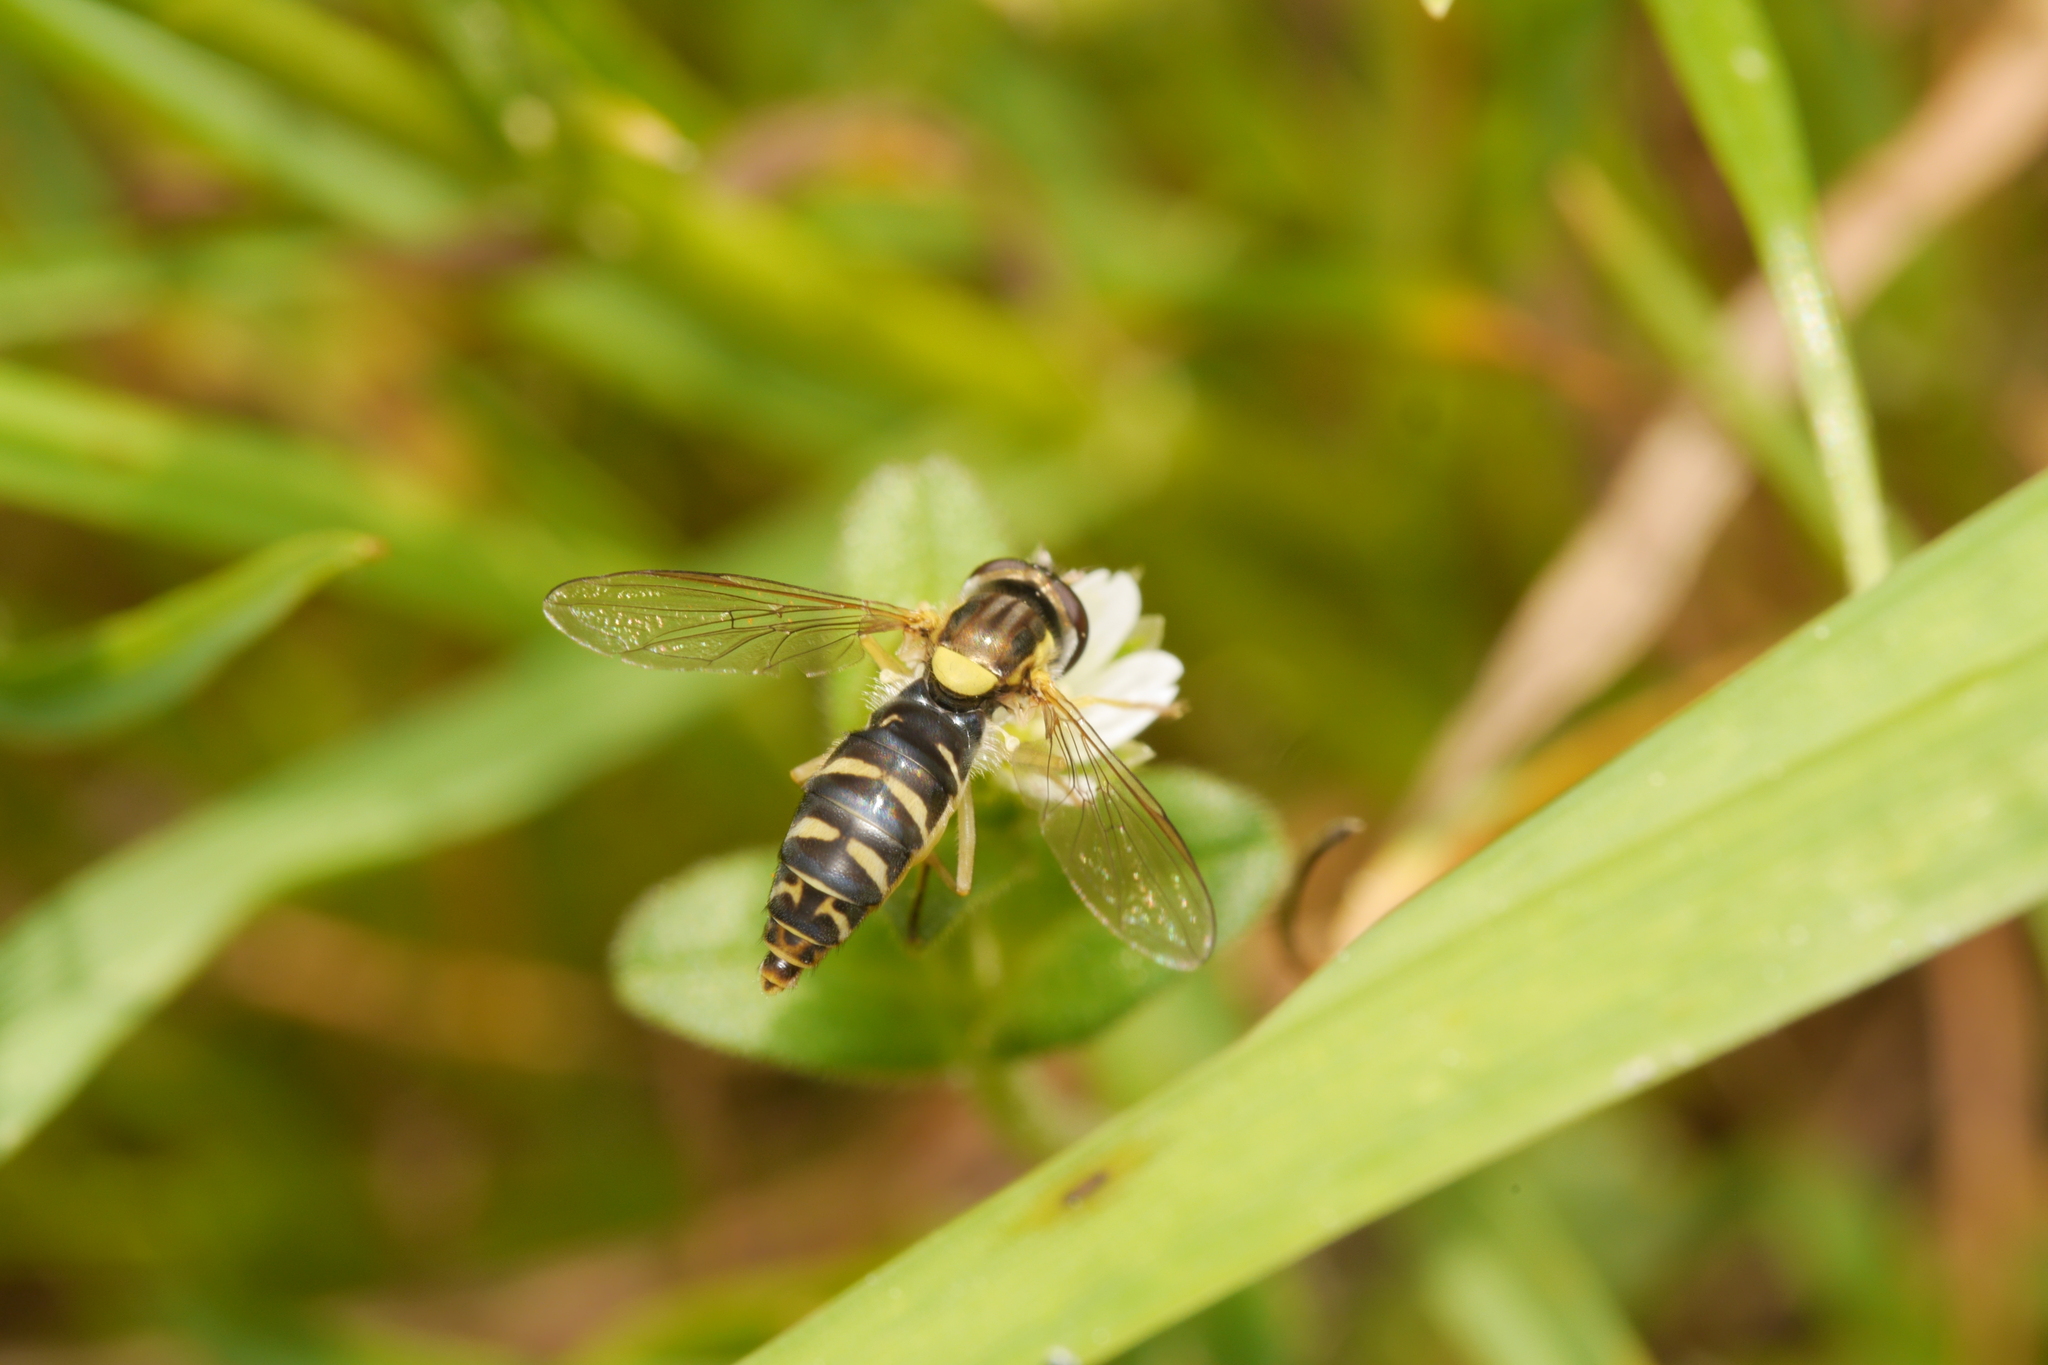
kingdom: Animalia
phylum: Arthropoda
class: Insecta
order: Diptera
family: Syrphidae
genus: Sphaerophoria
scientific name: Sphaerophoria
